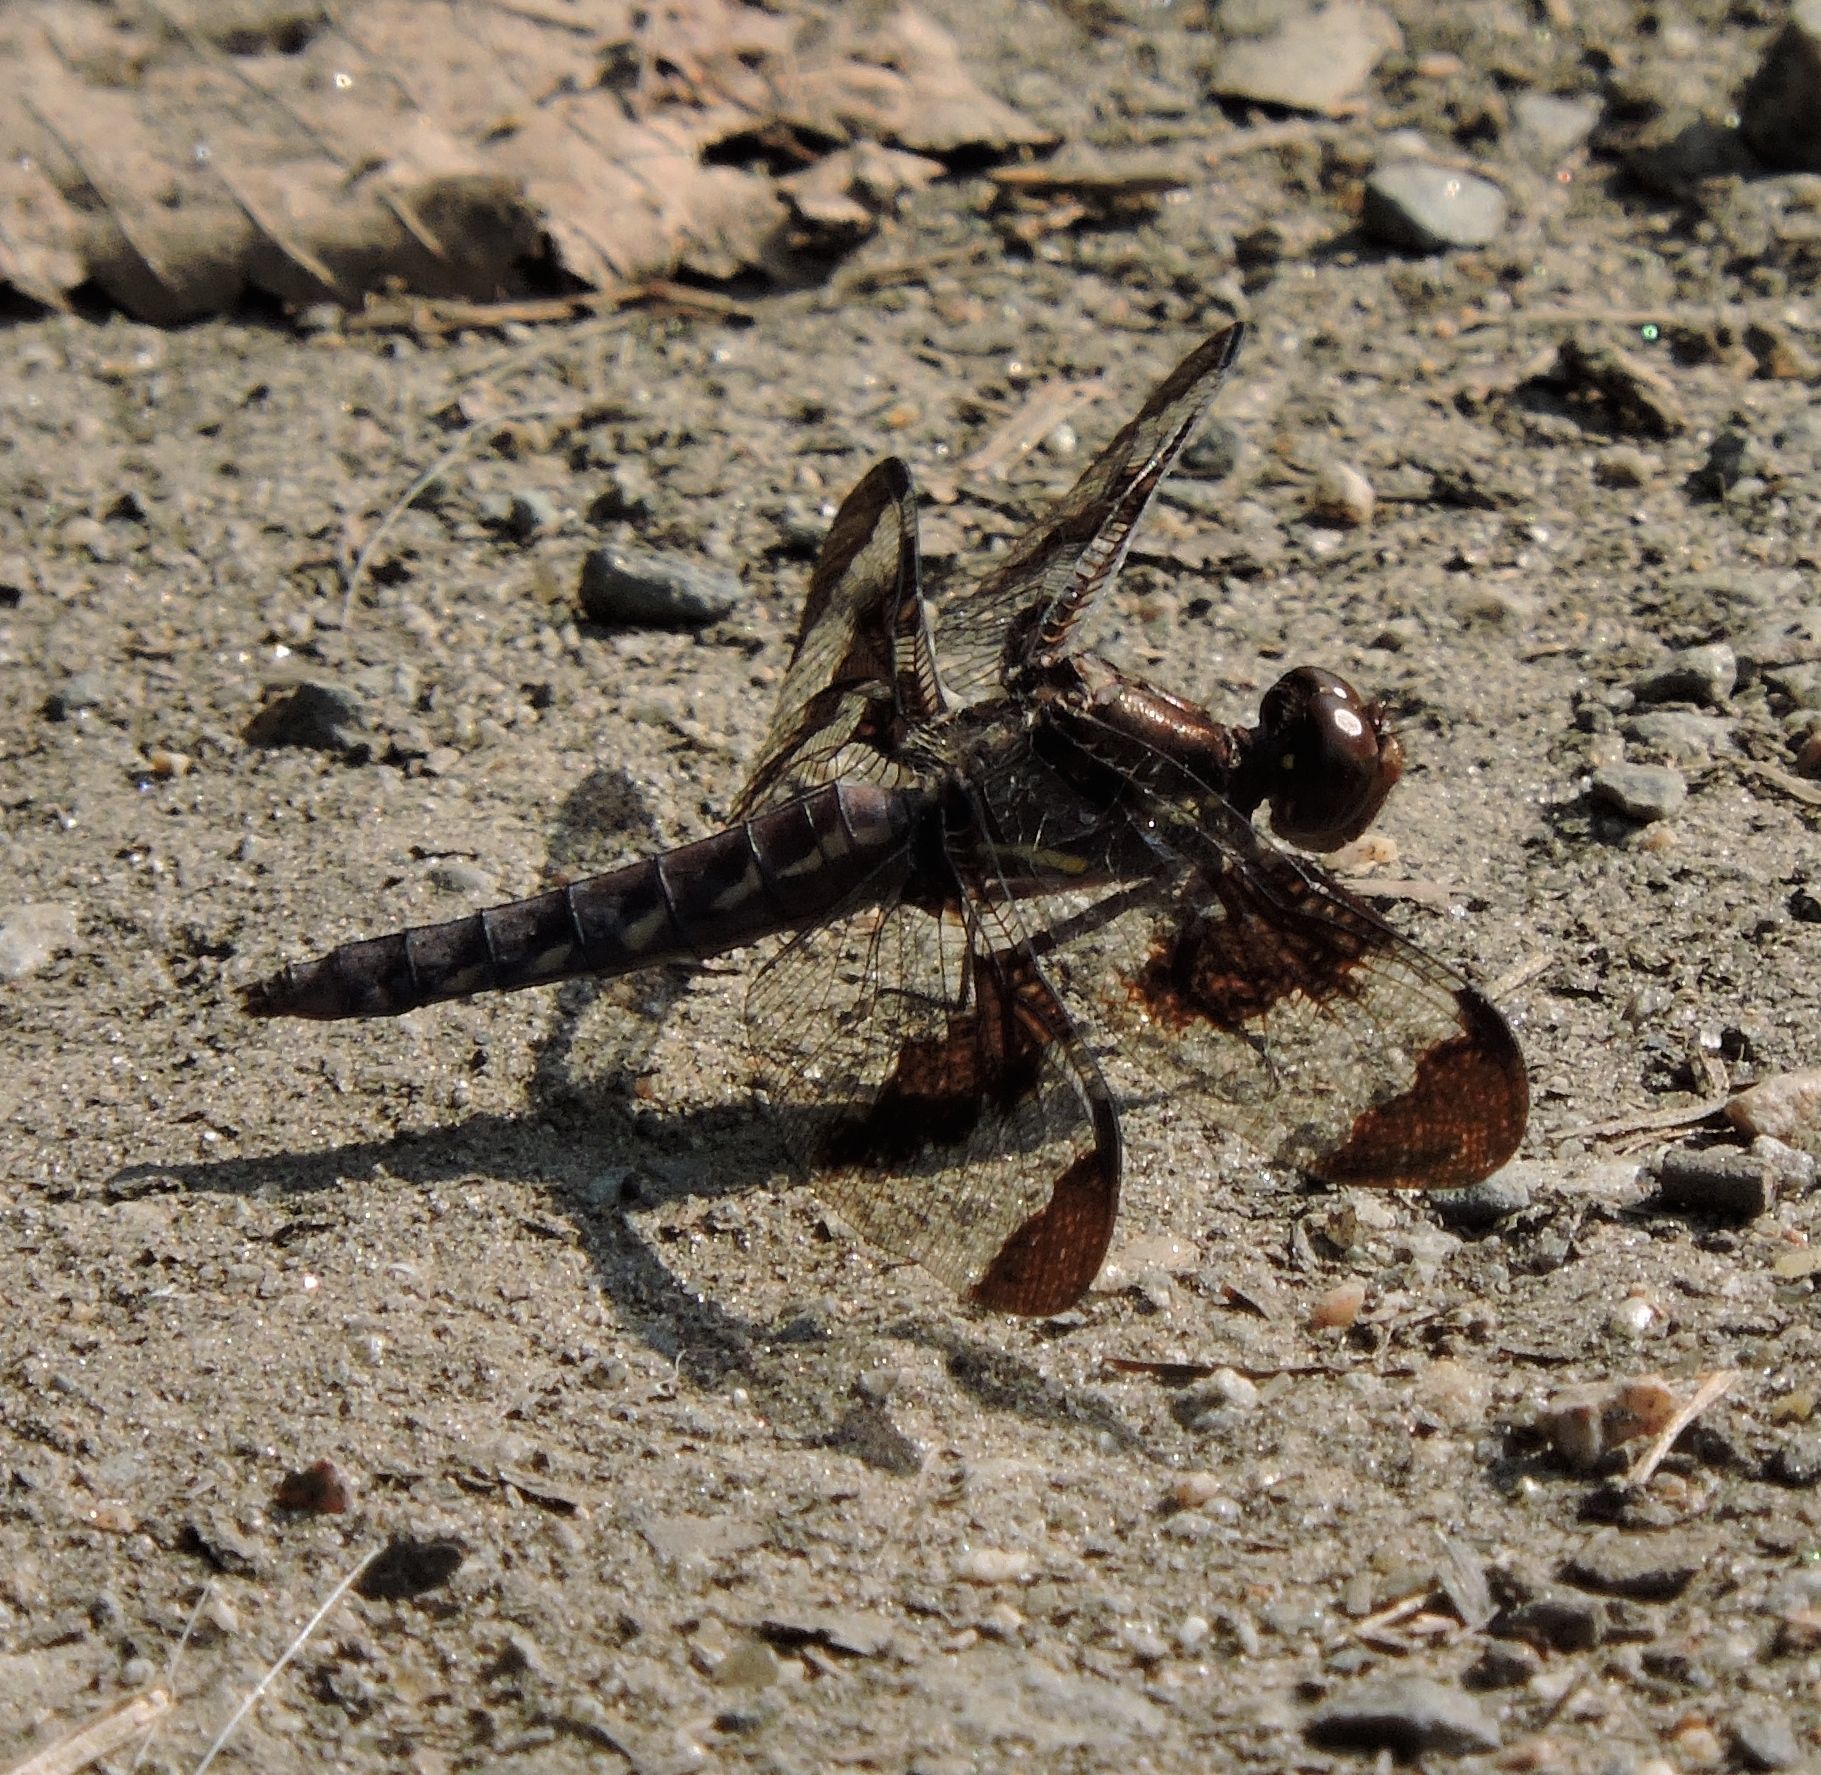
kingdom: Animalia
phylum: Arthropoda
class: Insecta
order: Odonata
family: Libellulidae
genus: Plathemis
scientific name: Plathemis lydia
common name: Common whitetail
